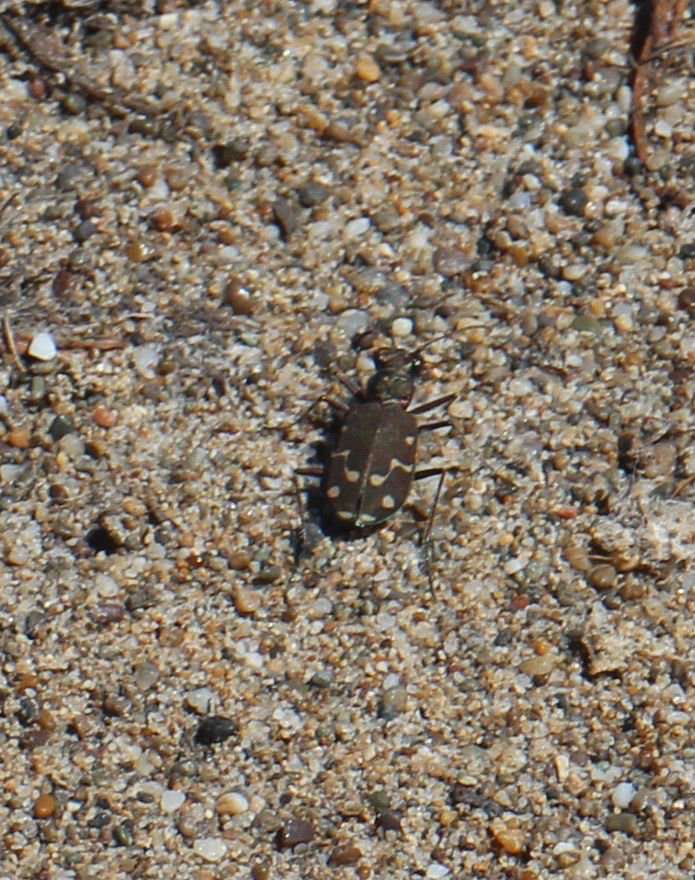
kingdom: Animalia
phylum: Arthropoda
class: Insecta
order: Coleoptera
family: Carabidae
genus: Cicindela
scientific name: Cicindela oregona
